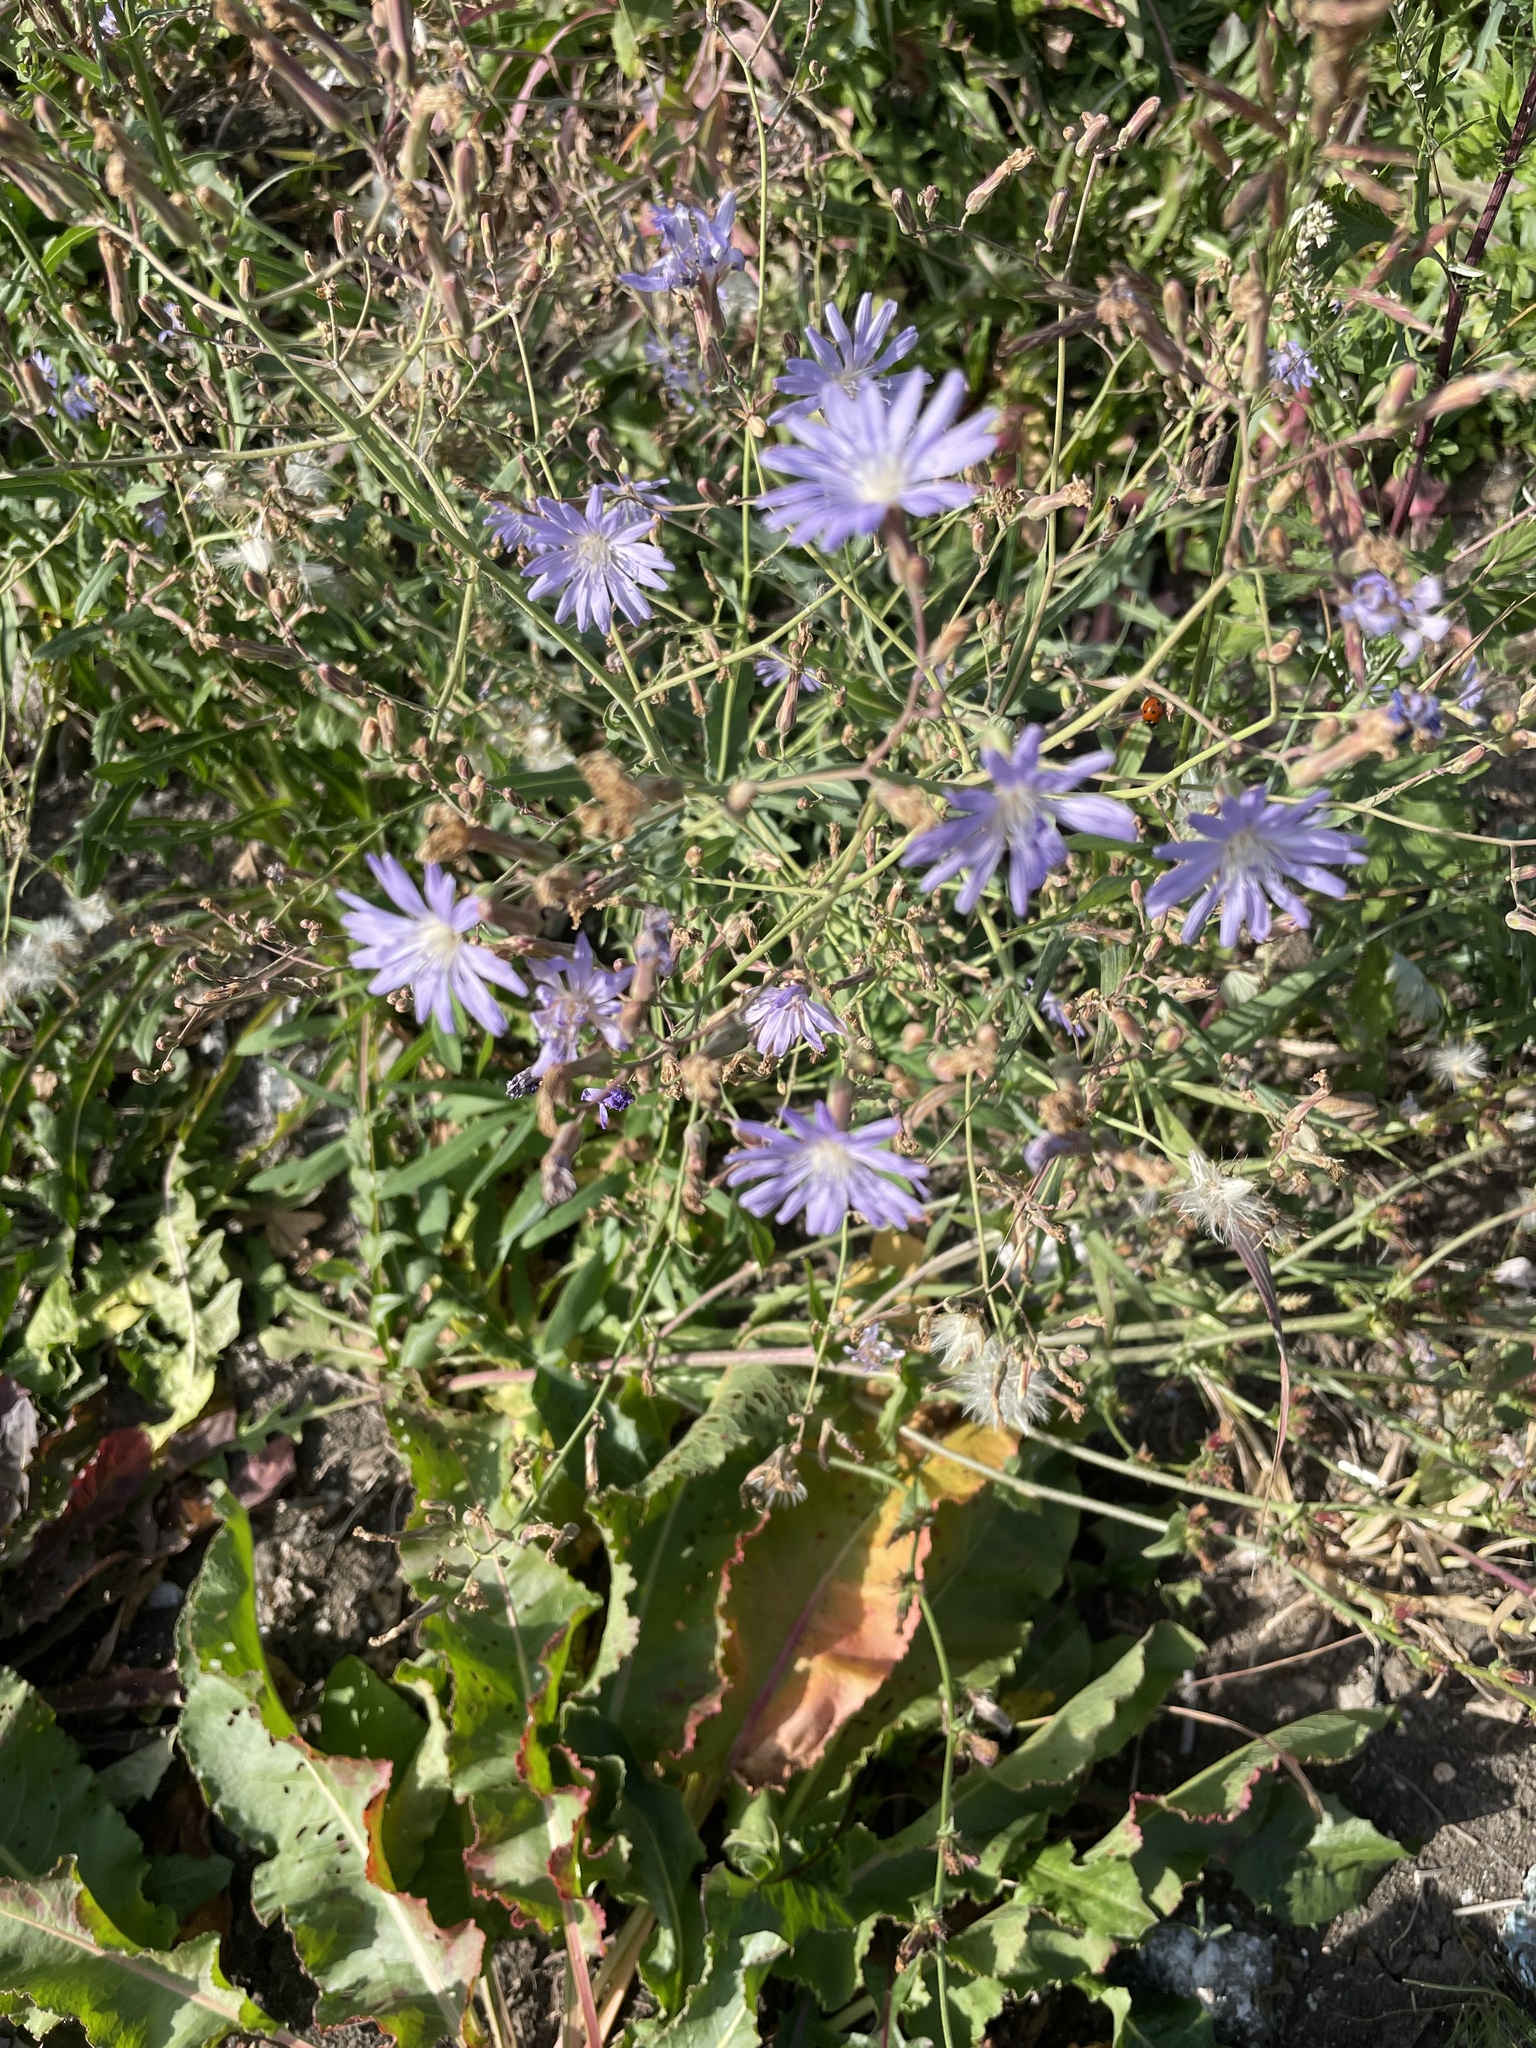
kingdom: Plantae
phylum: Tracheophyta
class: Magnoliopsida
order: Asterales
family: Asteraceae
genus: Lactuca
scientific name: Lactuca tatarica
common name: Blue lettuce
